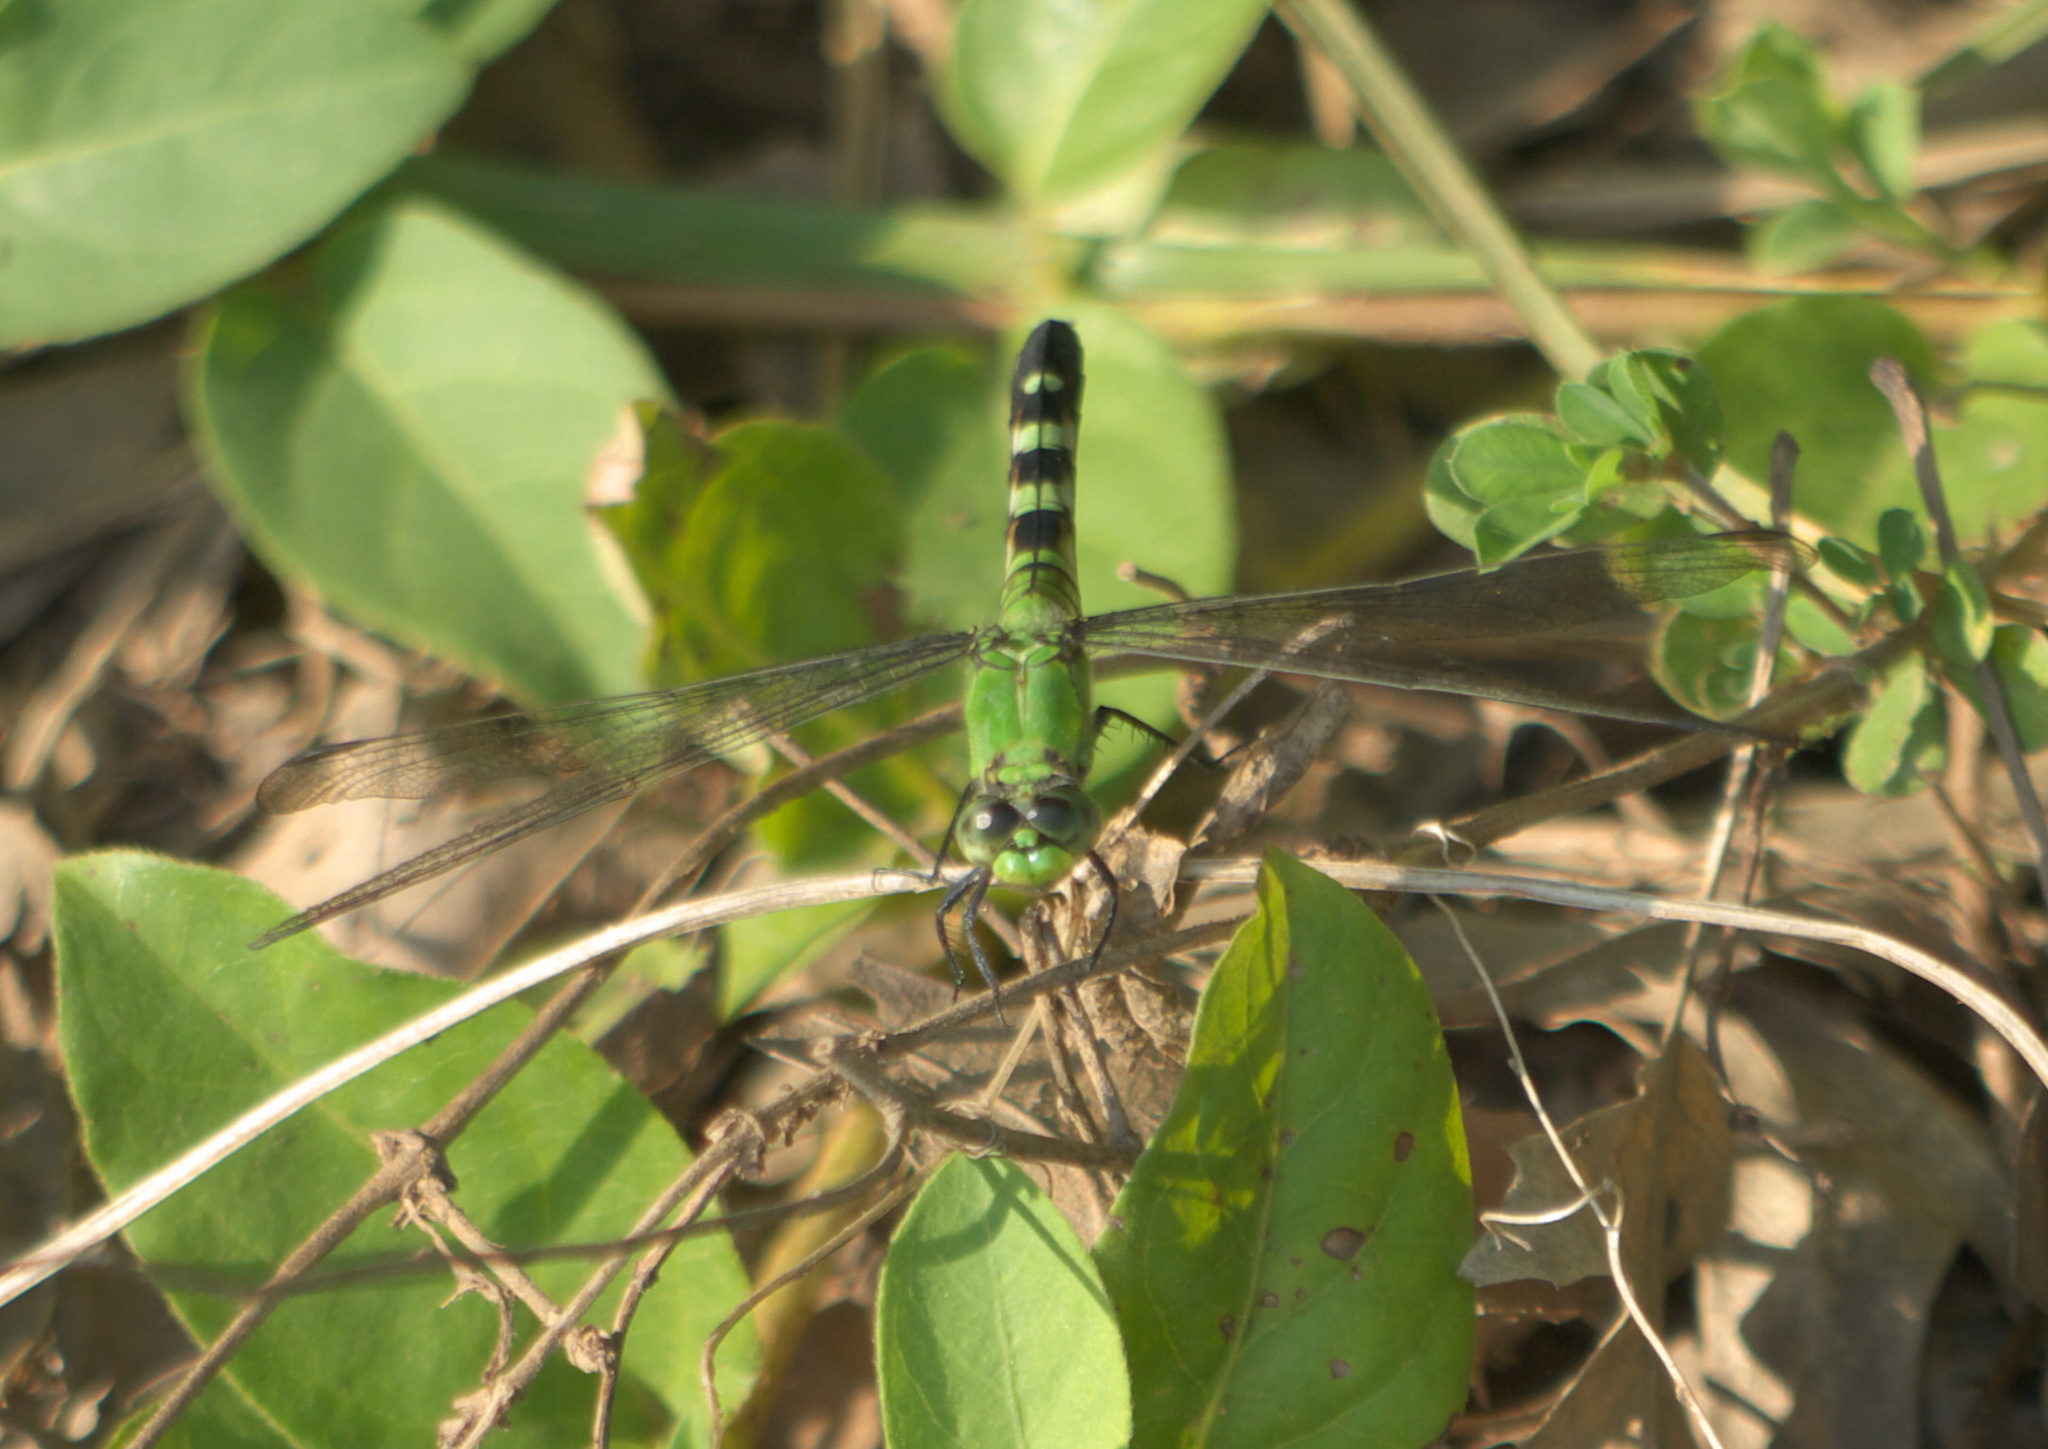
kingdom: Animalia
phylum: Arthropoda
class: Insecta
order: Odonata
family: Libellulidae
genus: Erythemis
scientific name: Erythemis simplicicollis
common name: Eastern pondhawk
